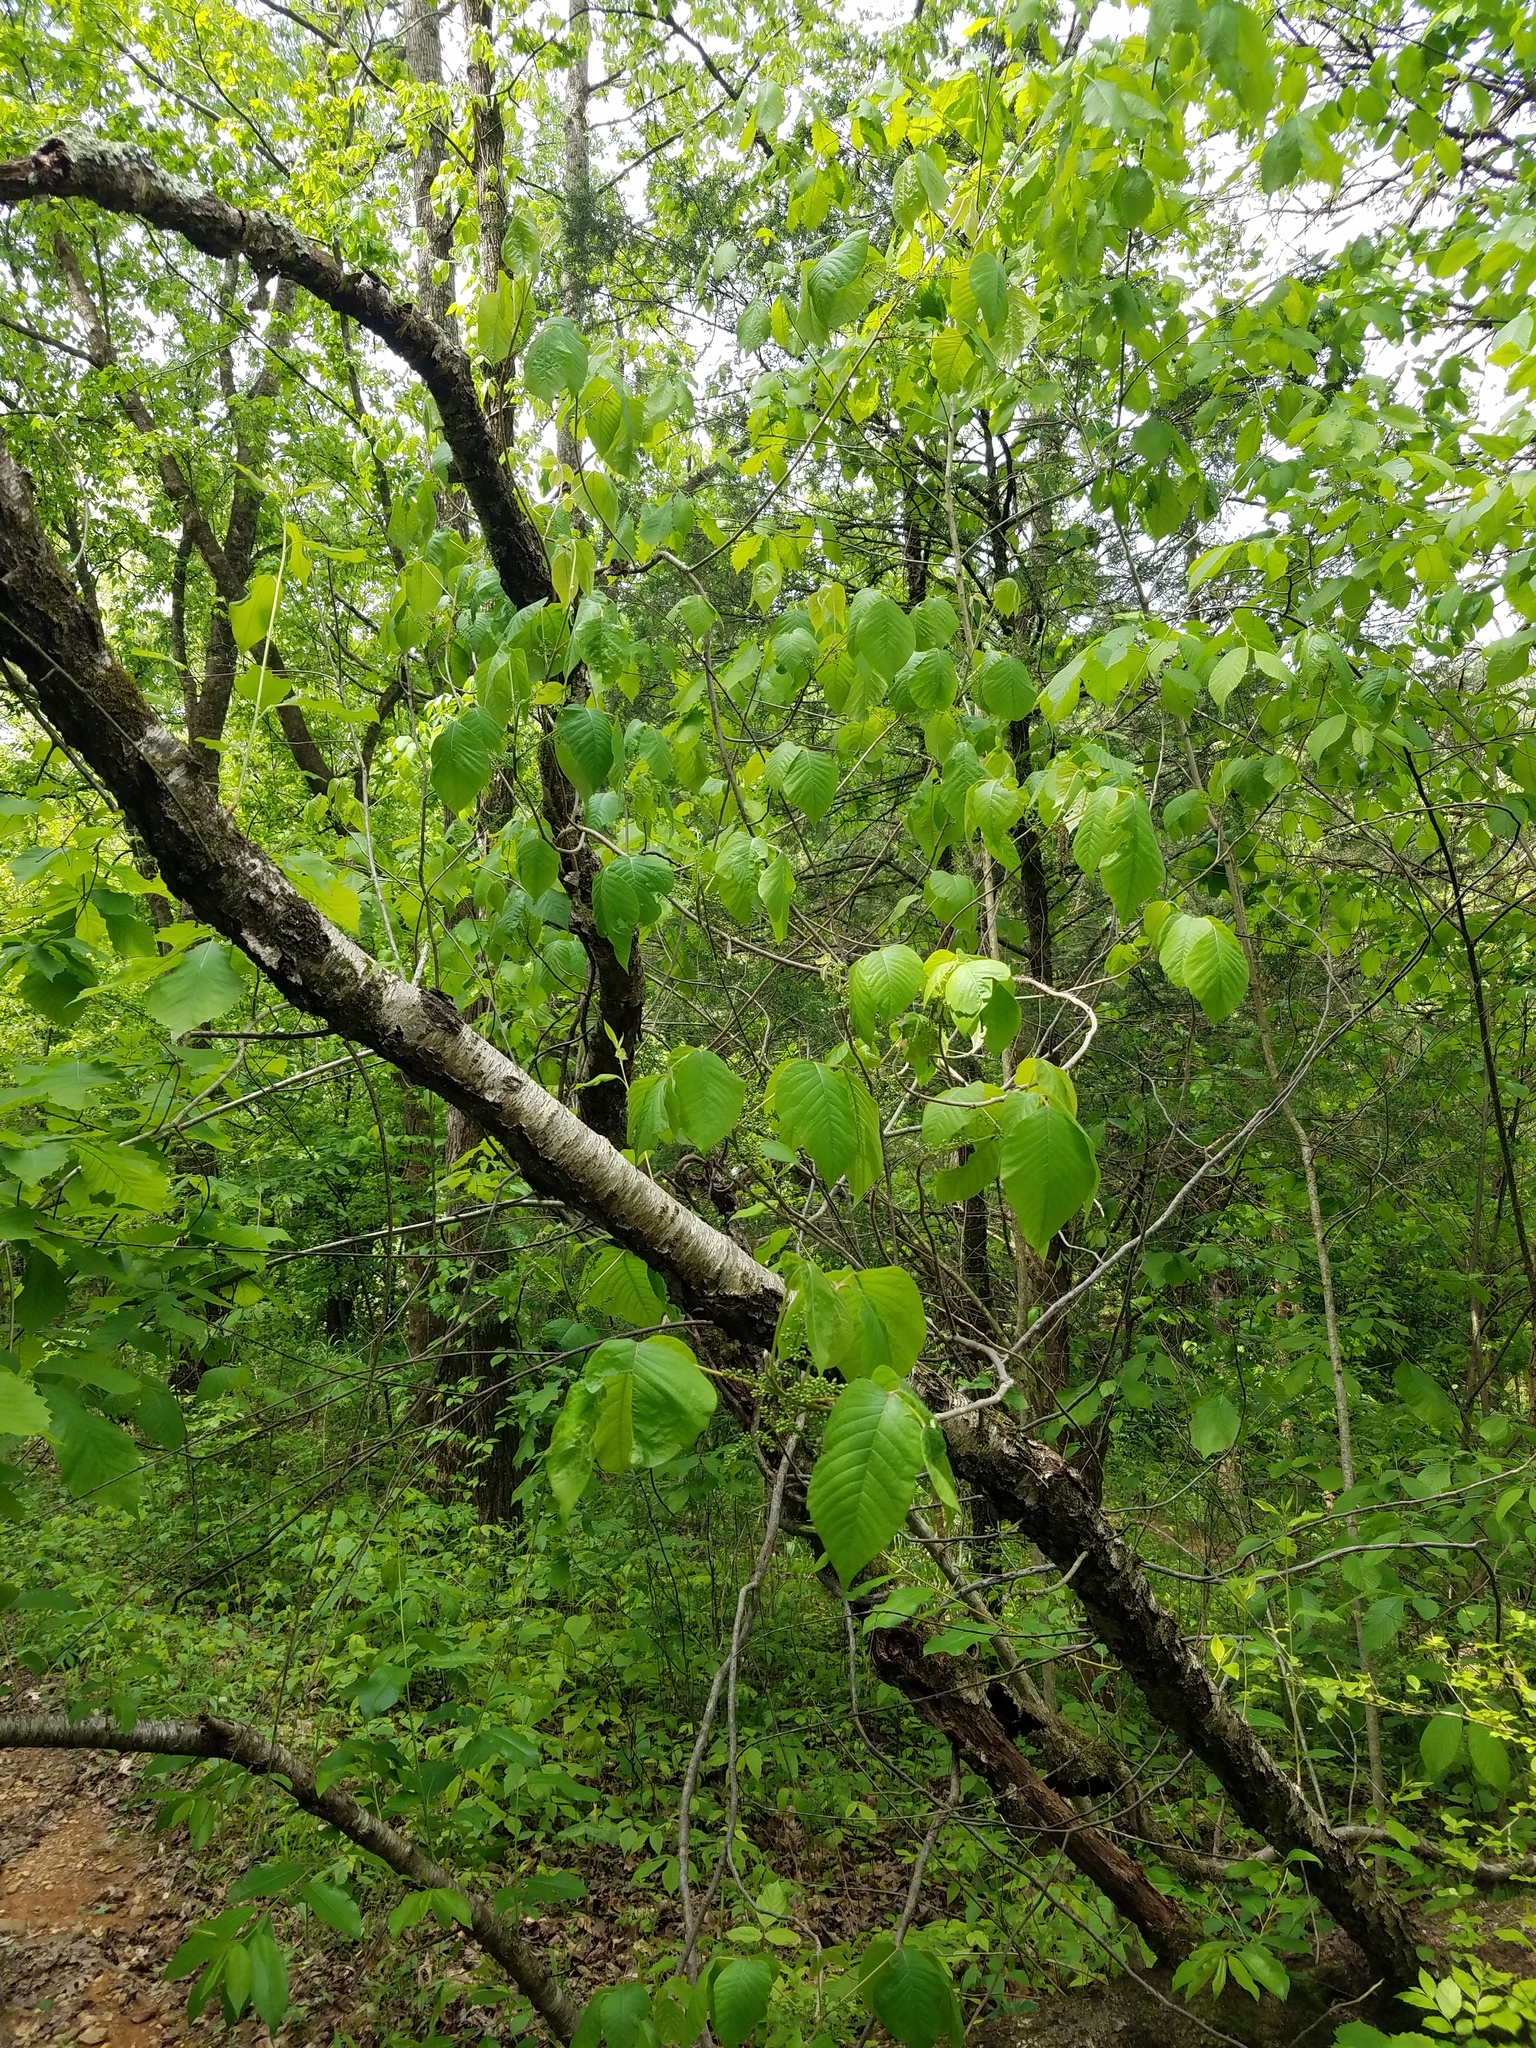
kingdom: Plantae
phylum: Tracheophyta
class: Magnoliopsida
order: Sapindales
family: Anacardiaceae
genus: Toxicodendron
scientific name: Toxicodendron radicans
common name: Poison ivy
